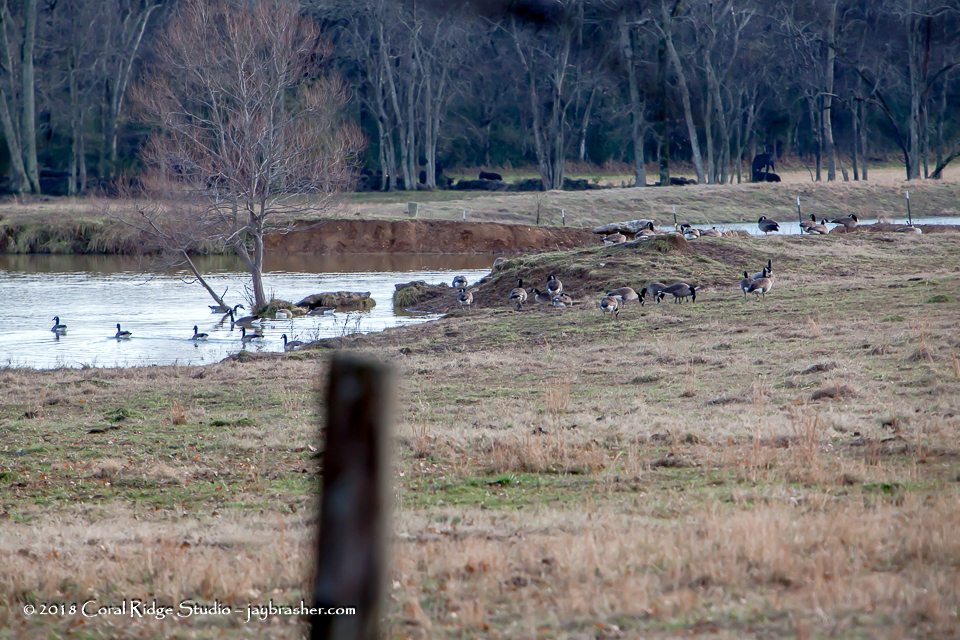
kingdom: Animalia
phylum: Chordata
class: Aves
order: Anseriformes
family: Anatidae
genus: Branta
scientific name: Branta canadensis
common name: Canada goose
